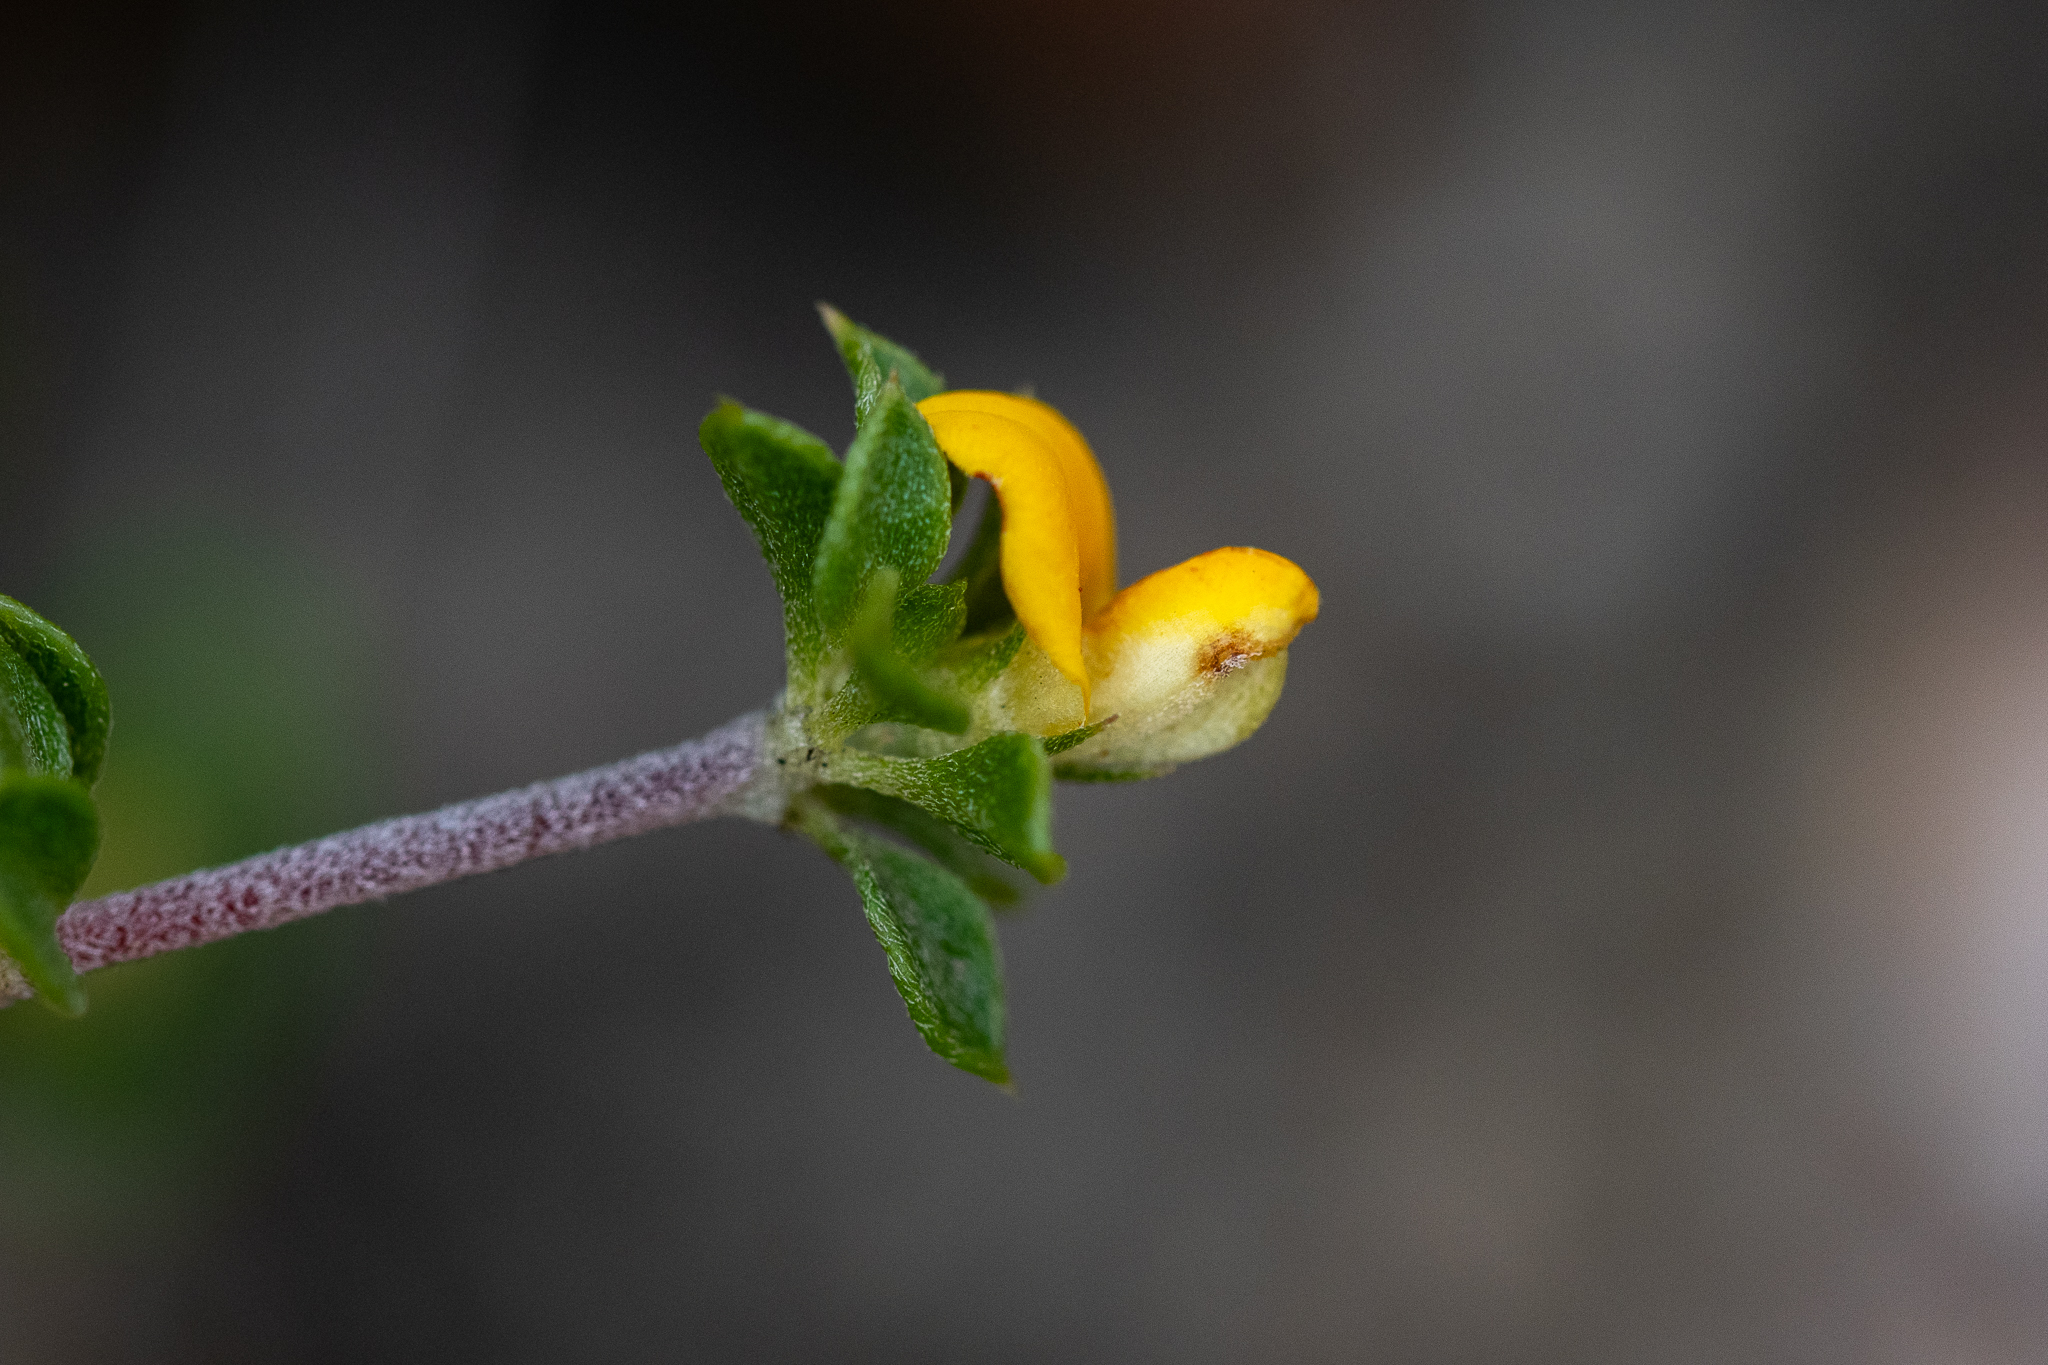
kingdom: Plantae
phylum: Tracheophyta
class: Magnoliopsida
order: Fabales
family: Fabaceae
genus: Aspalathus
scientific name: Aspalathus marginata
